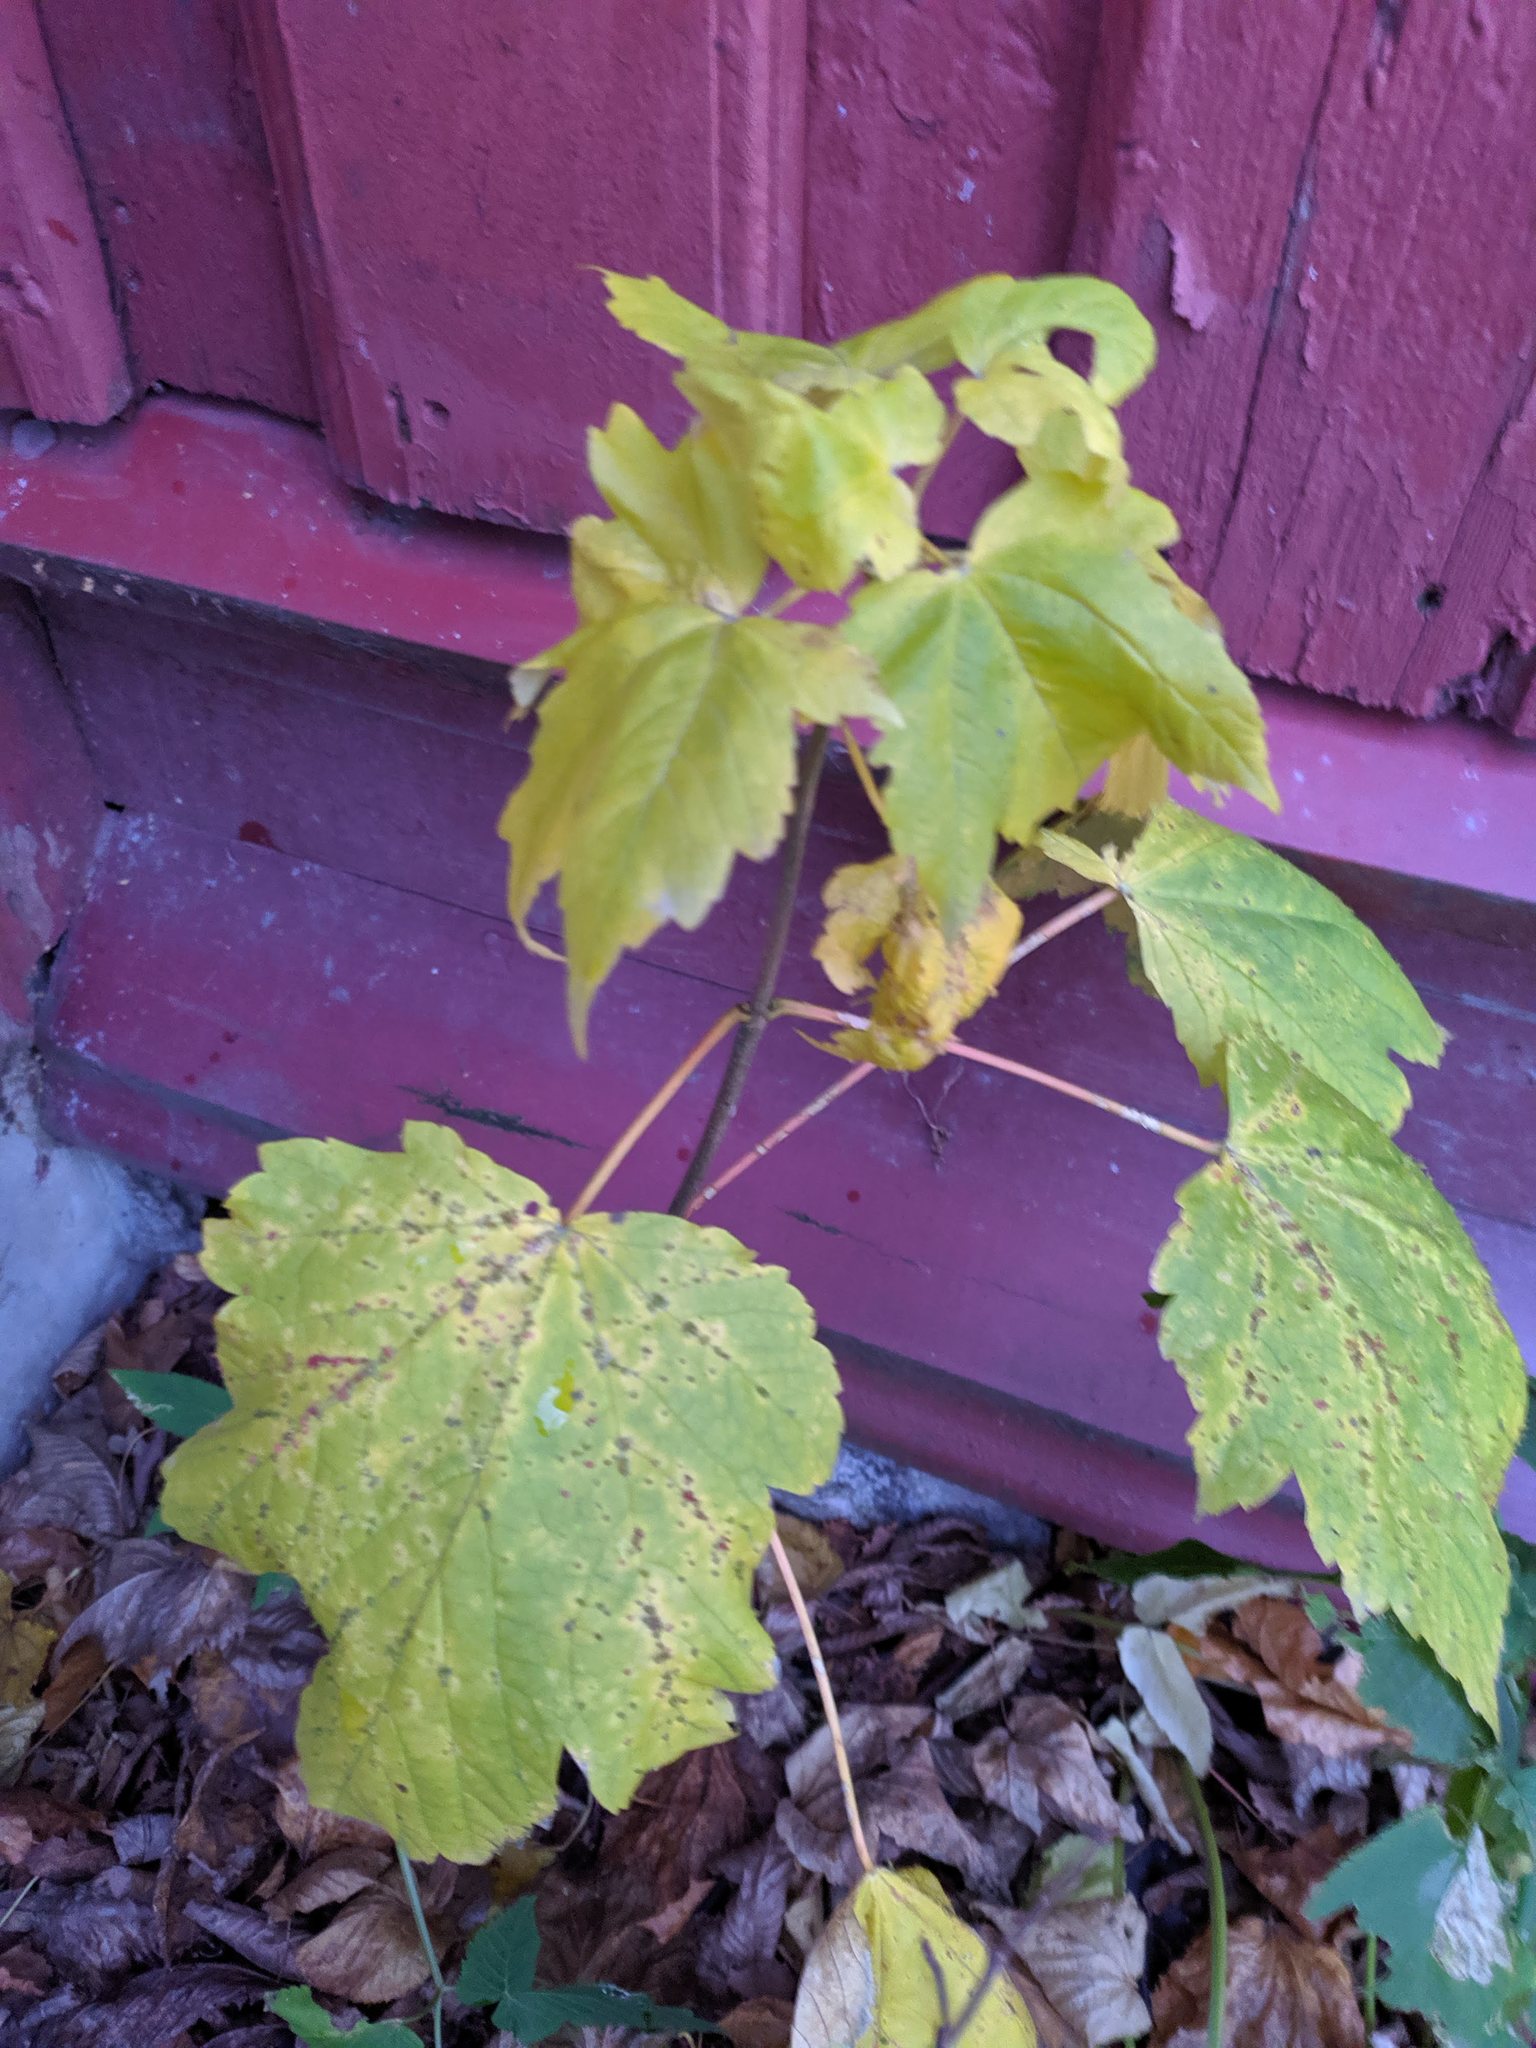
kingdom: Plantae
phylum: Tracheophyta
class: Magnoliopsida
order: Sapindales
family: Sapindaceae
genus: Acer
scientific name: Acer pseudoplatanus
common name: Sycamore
